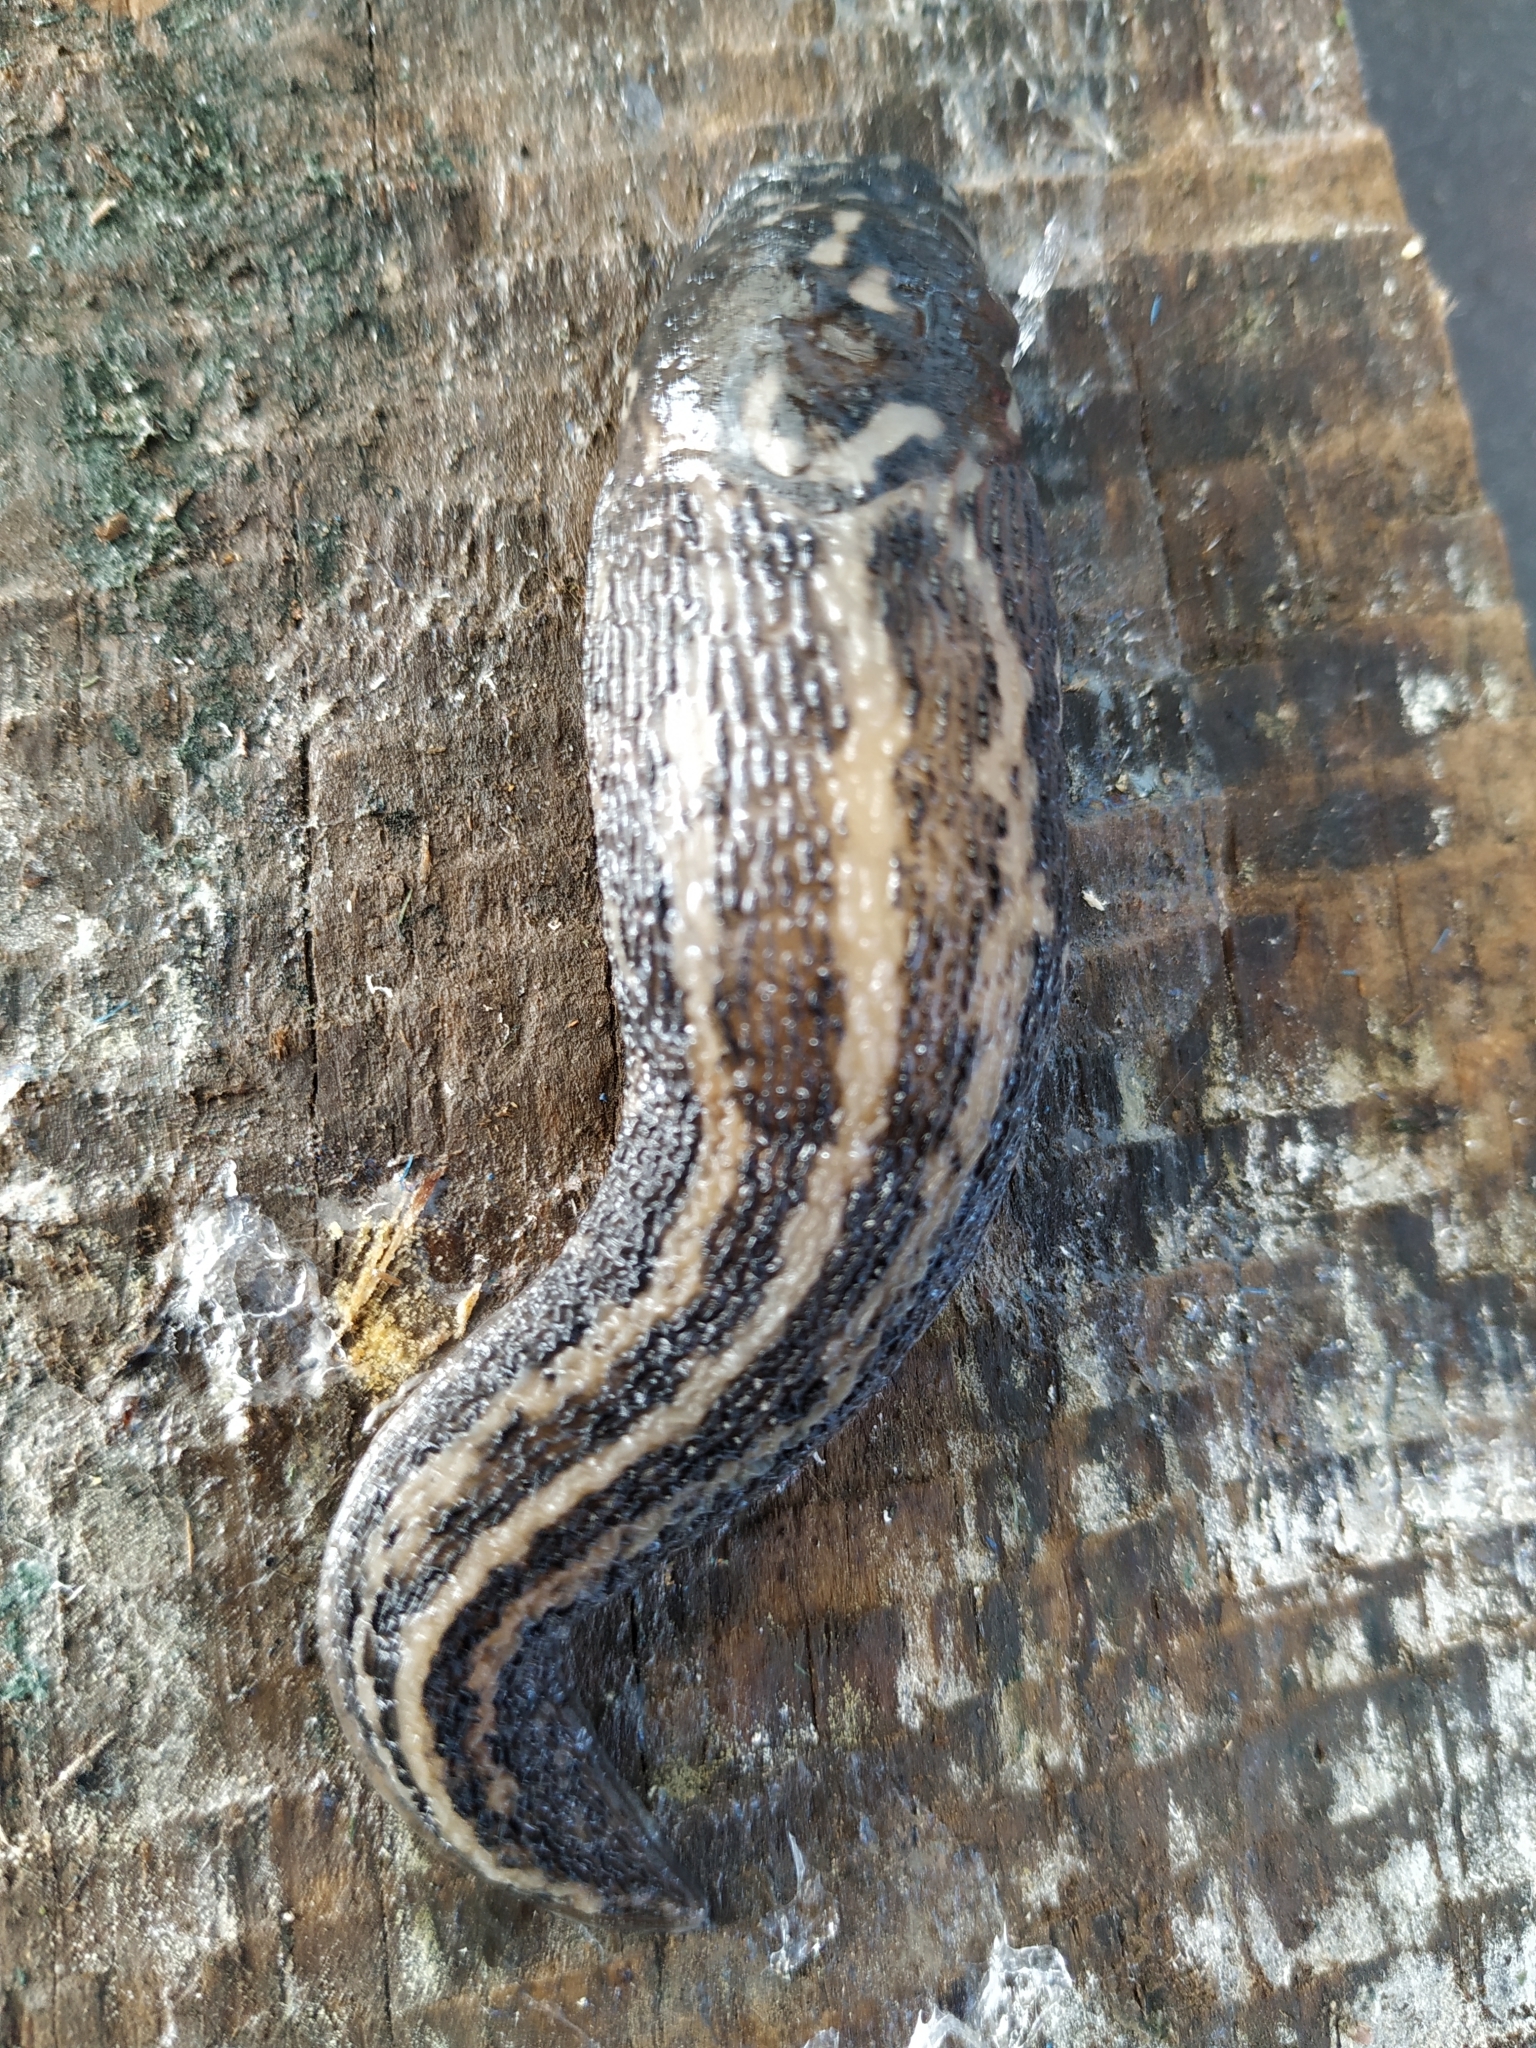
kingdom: Animalia
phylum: Mollusca
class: Gastropoda
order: Stylommatophora
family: Limacidae
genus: Limax
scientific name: Limax maximus
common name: Great grey slug
